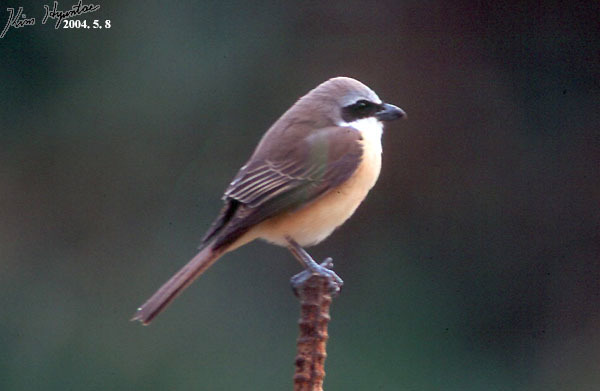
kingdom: Animalia
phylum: Chordata
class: Aves
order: Passeriformes
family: Laniidae
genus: Lanius
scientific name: Lanius cristatus
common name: Brown shrike
